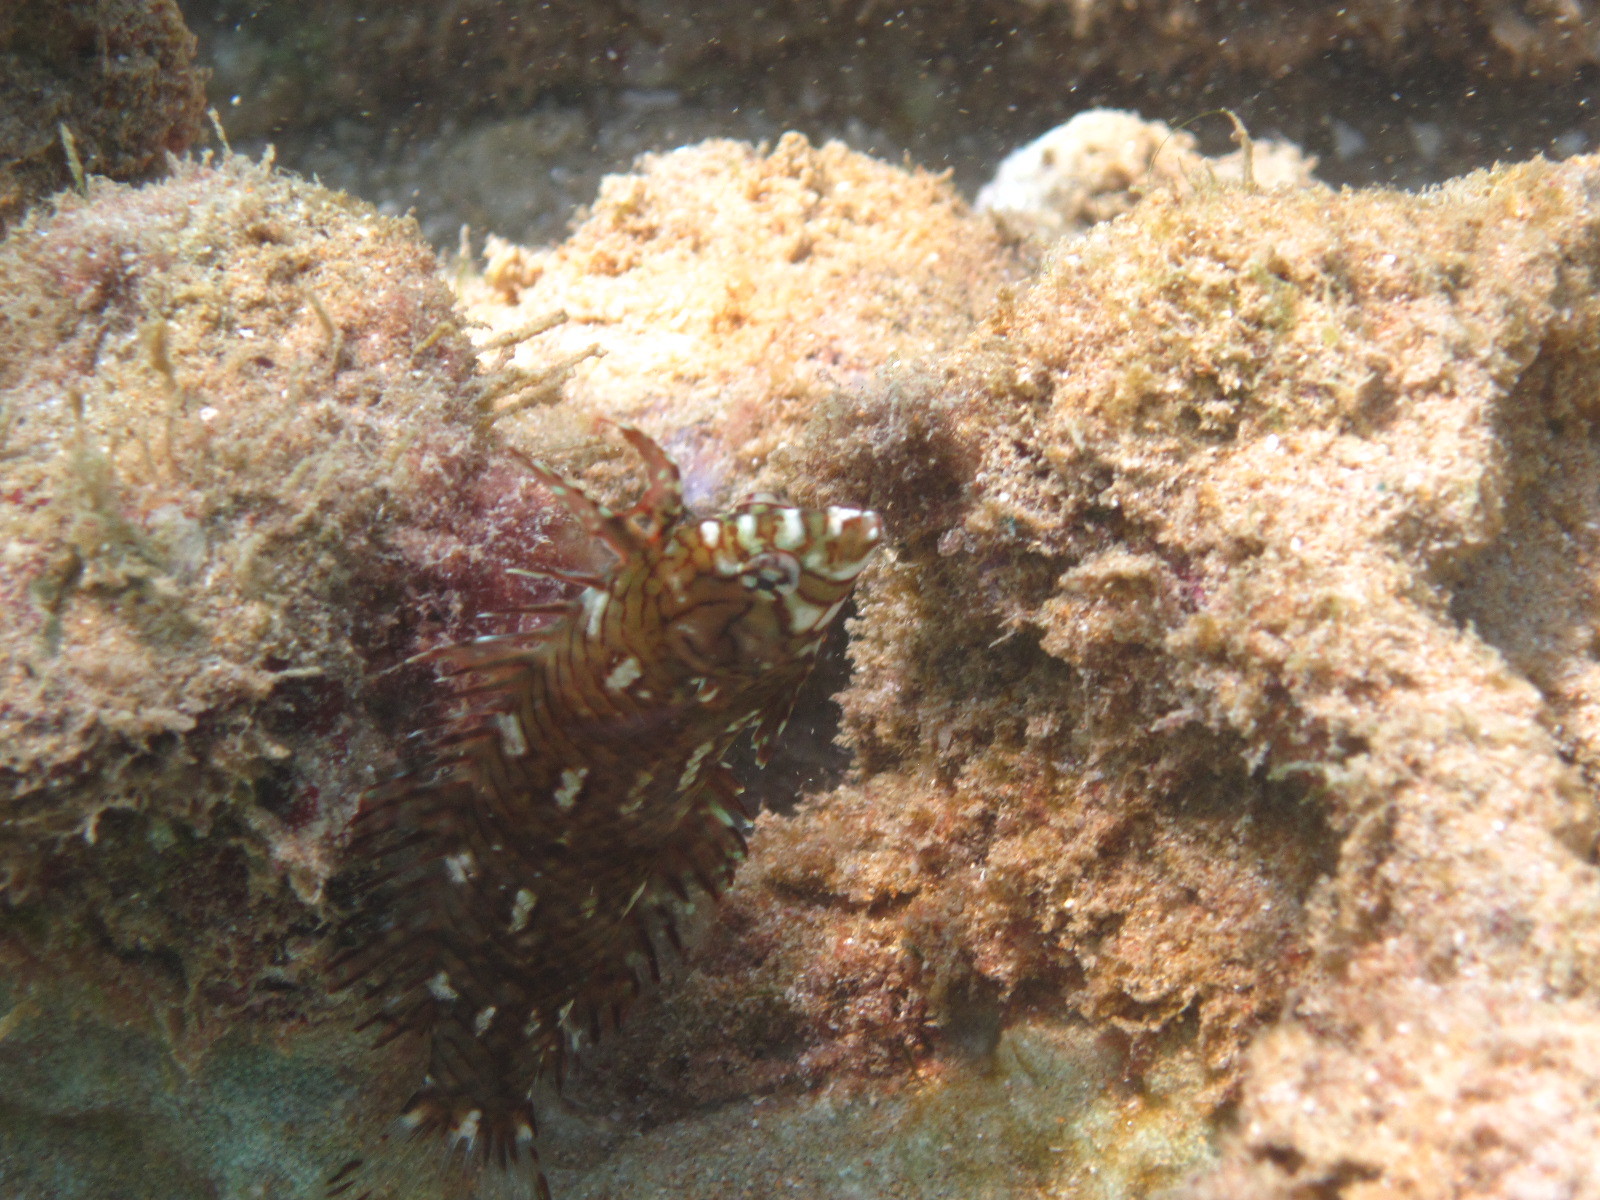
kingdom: Animalia
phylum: Chordata
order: Perciformes
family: Labridae
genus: Novaculichthys
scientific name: Novaculichthys taeniourus
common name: Rockmover wrasse
